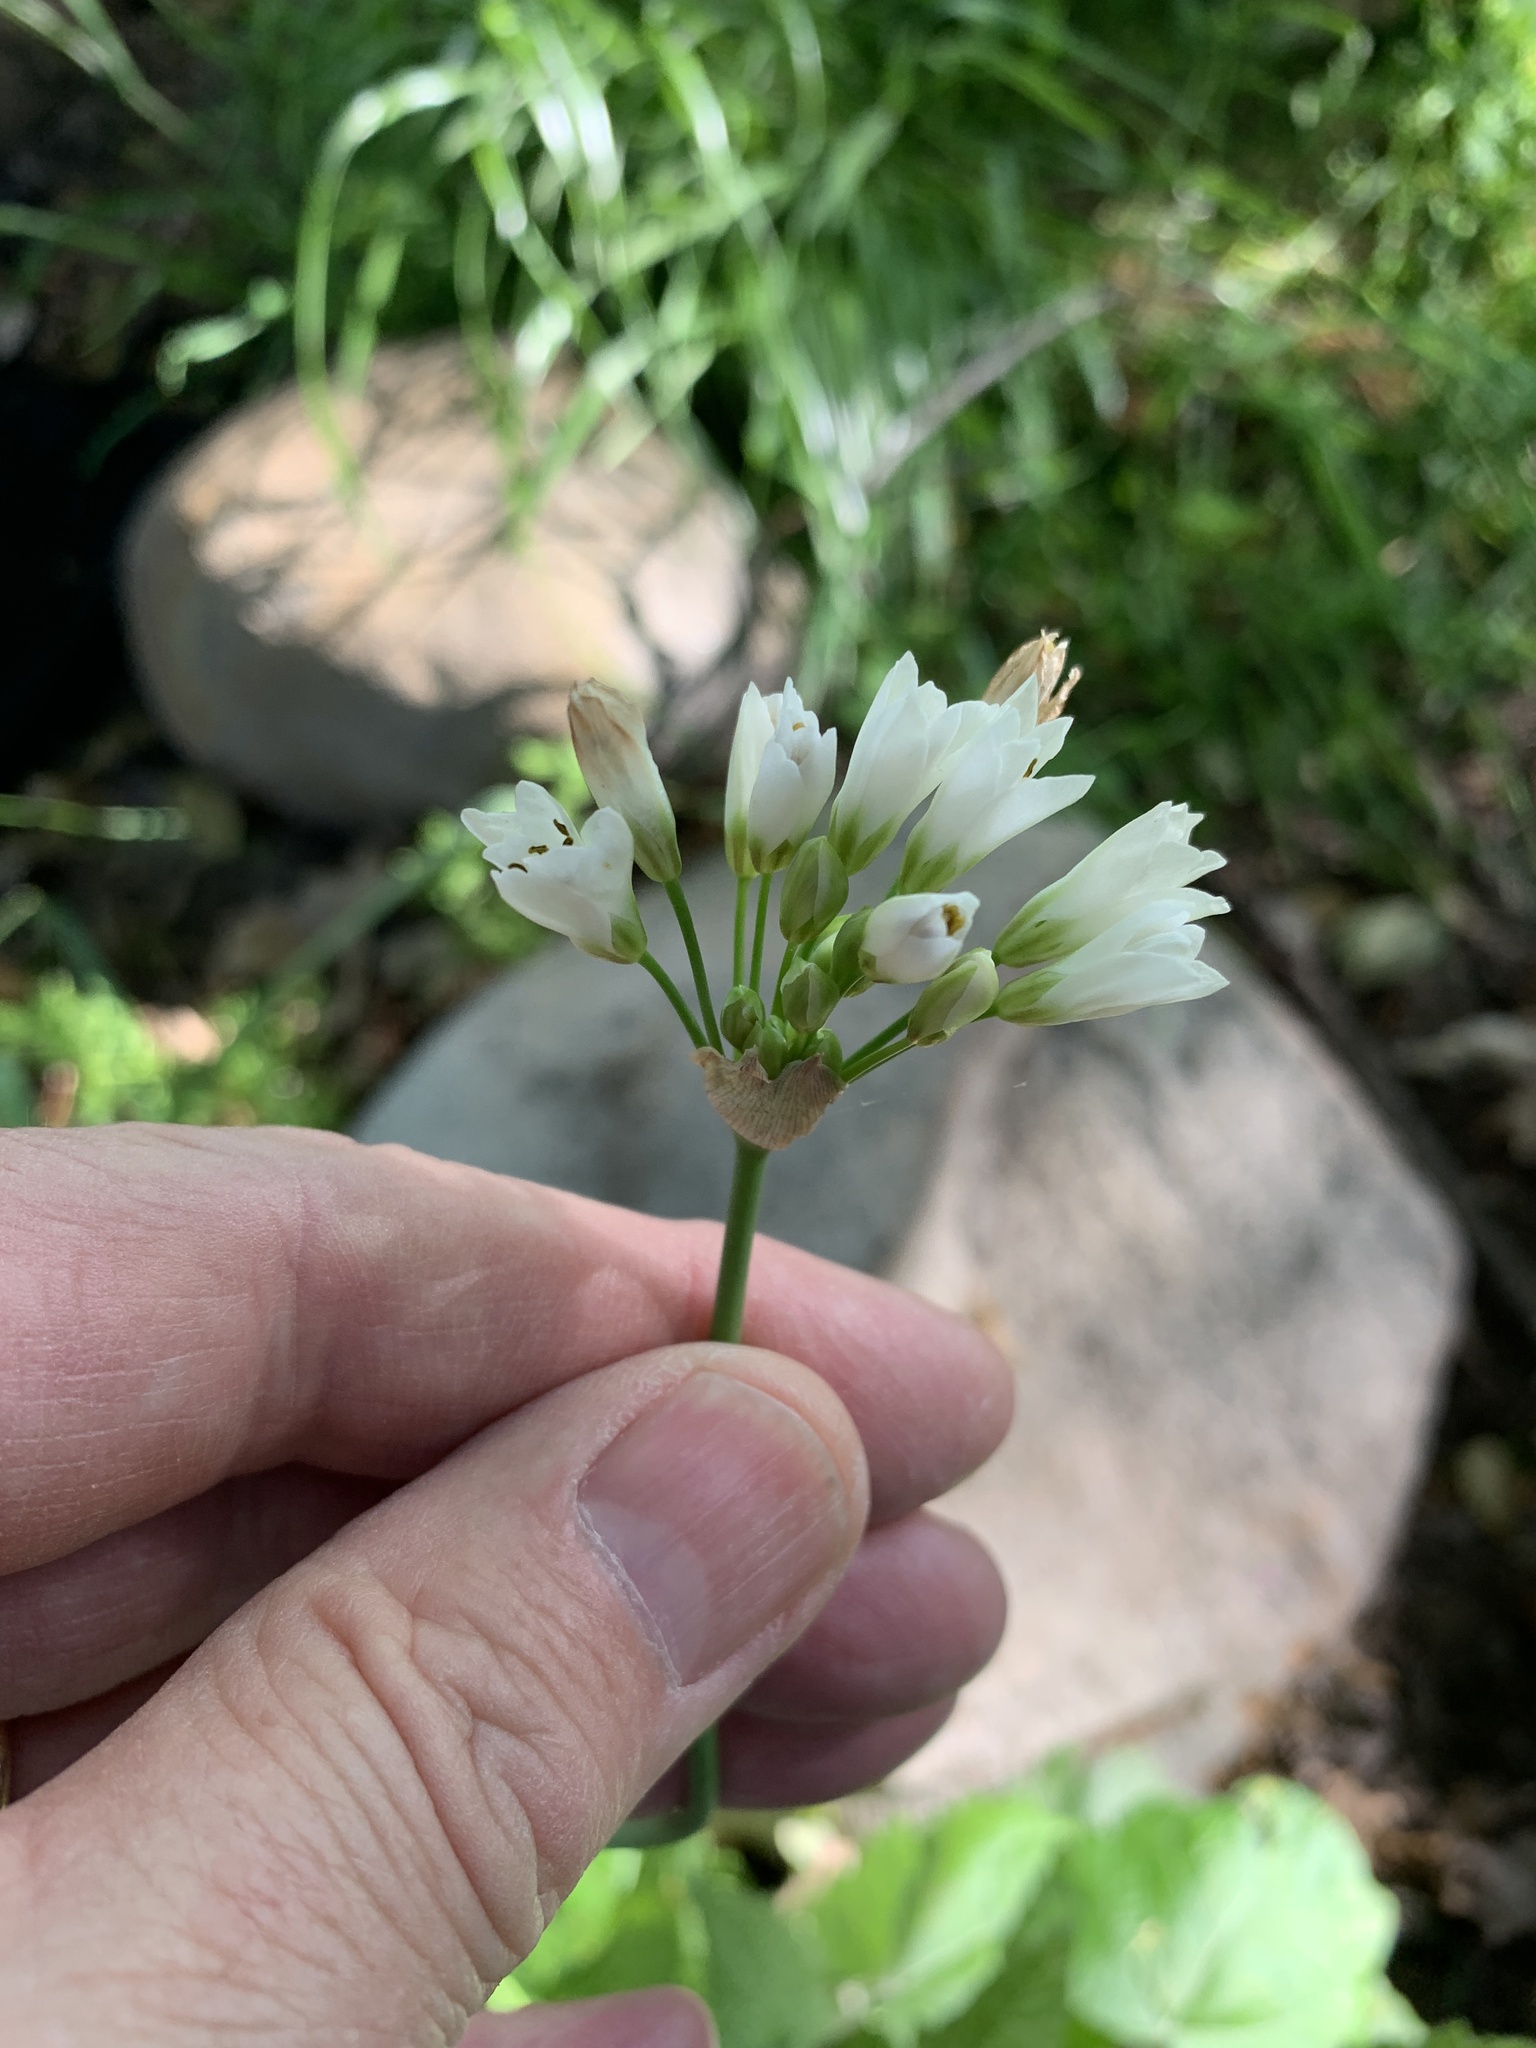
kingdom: Plantae
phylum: Tracheophyta
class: Liliopsida
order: Asparagales
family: Amaryllidaceae
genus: Nothoscordum
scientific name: Nothoscordum gracile
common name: Slender false garlic
